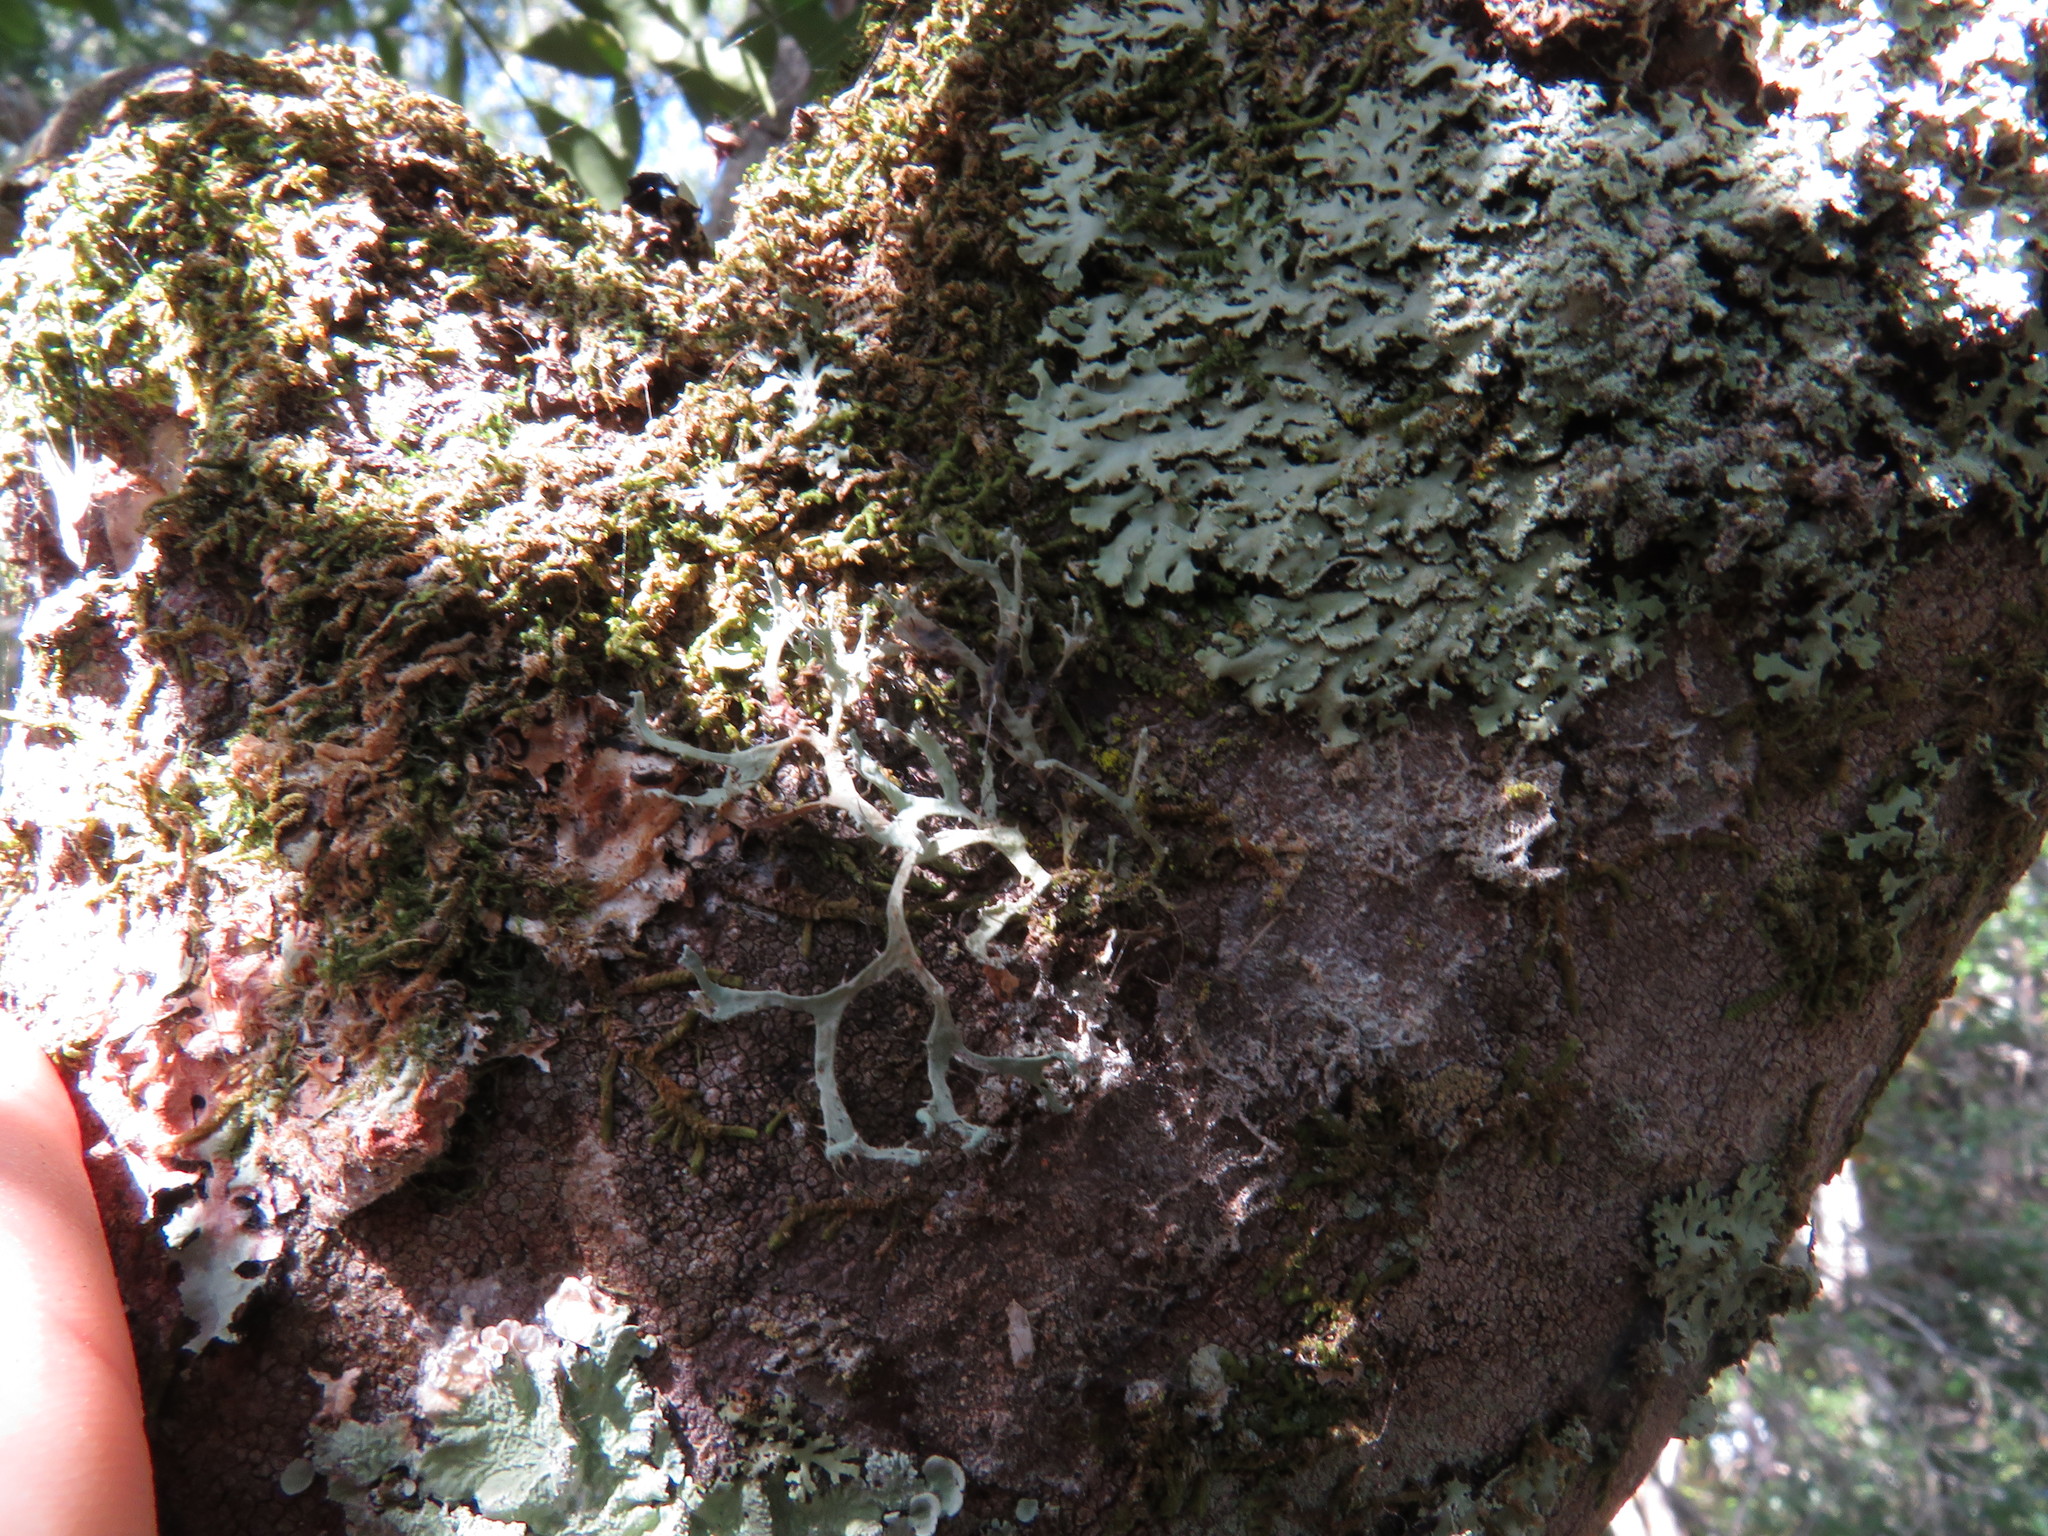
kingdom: Fungi
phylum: Ascomycota
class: Lecanoromycetes
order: Caliciales
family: Physciaceae
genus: Leucodermia
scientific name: Leucodermia leucomelos
